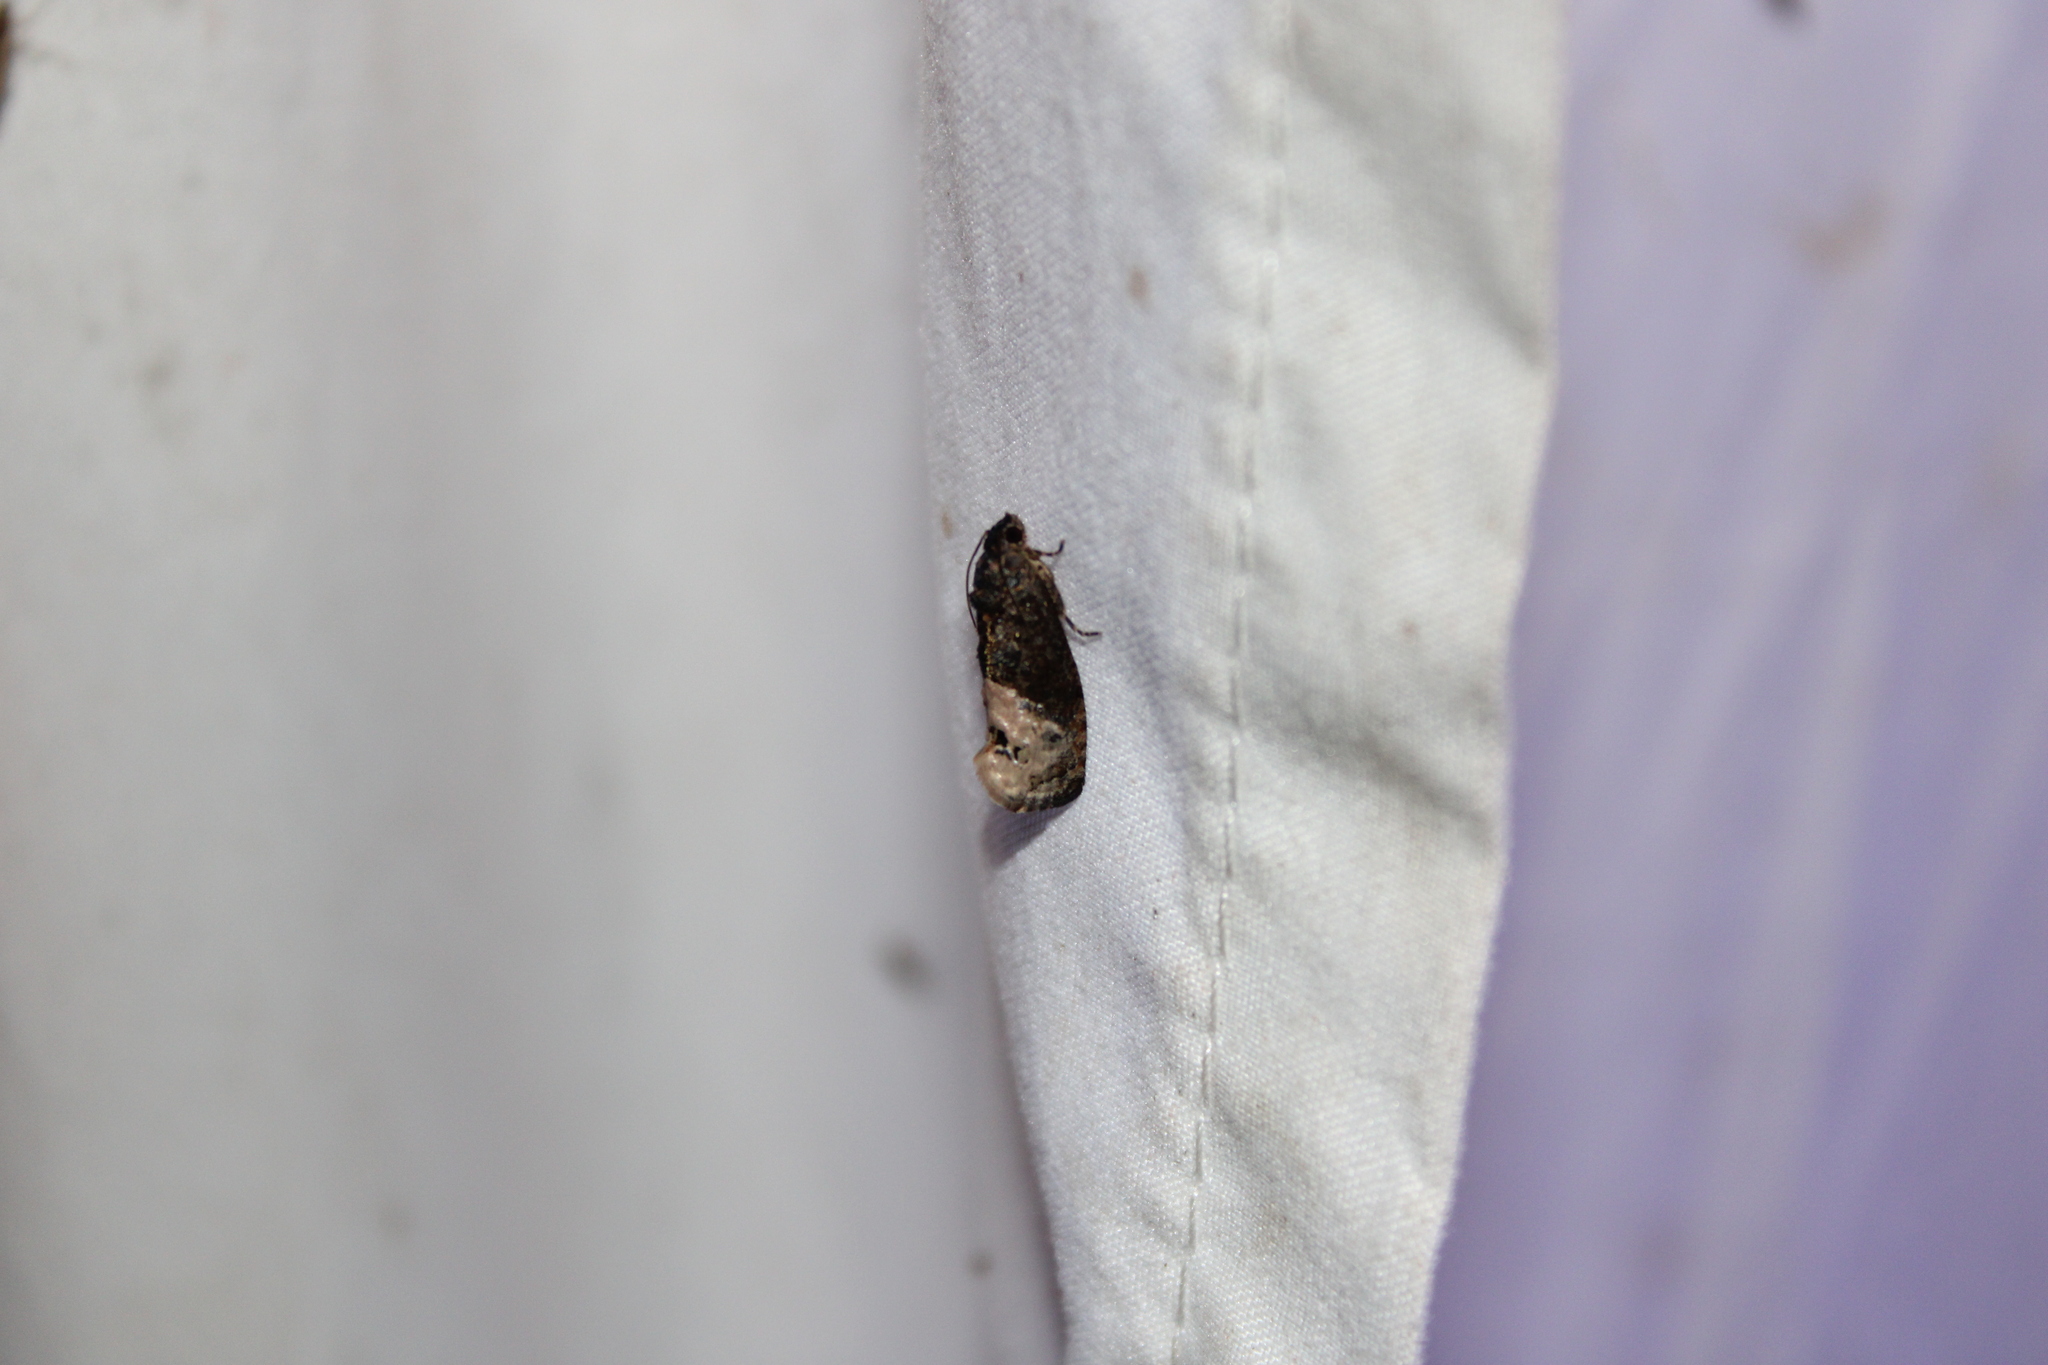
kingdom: Animalia
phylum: Arthropoda
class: Insecta
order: Lepidoptera
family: Tortricidae
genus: Ecdytolopha
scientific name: Ecdytolopha insiticiana
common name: Locust twig borer moth
